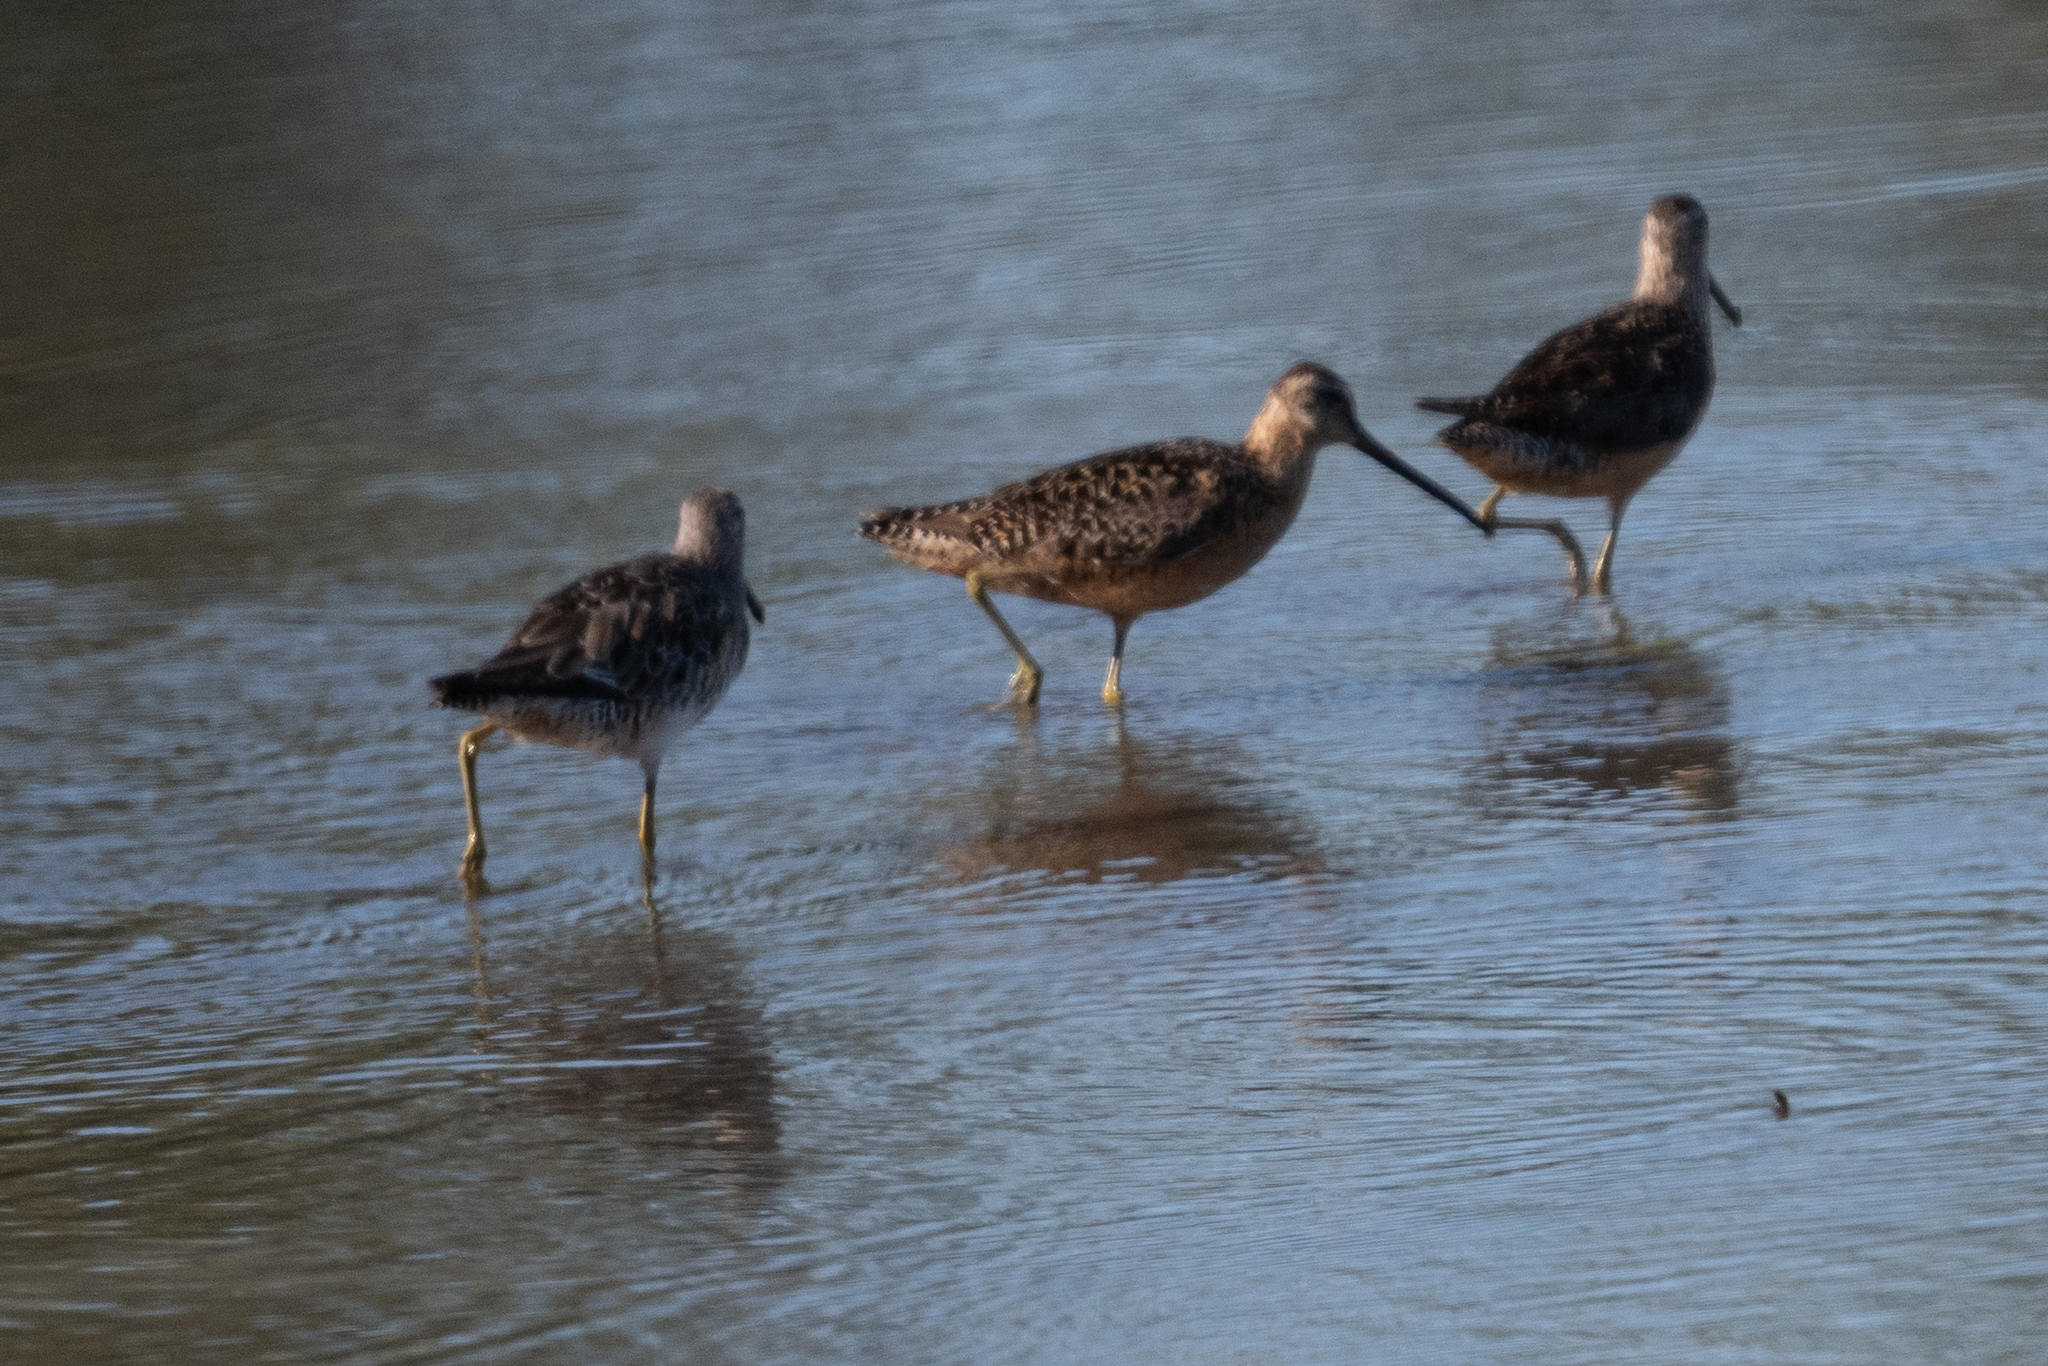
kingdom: Animalia
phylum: Chordata
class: Aves
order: Charadriiformes
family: Scolopacidae
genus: Limnodromus
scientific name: Limnodromus scolopaceus
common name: Long-billed dowitcher
